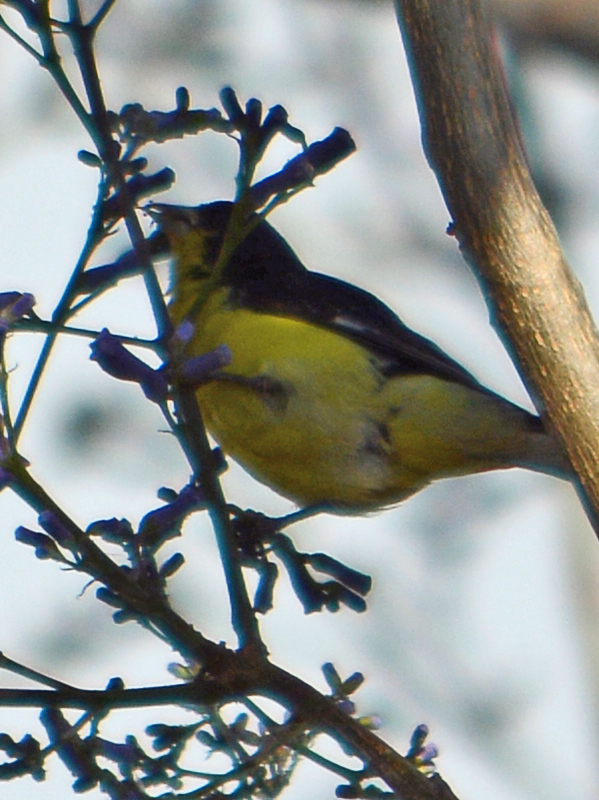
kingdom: Animalia
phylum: Chordata
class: Aves
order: Passeriformes
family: Fringillidae
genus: Spinus
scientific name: Spinus psaltria
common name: Lesser goldfinch
